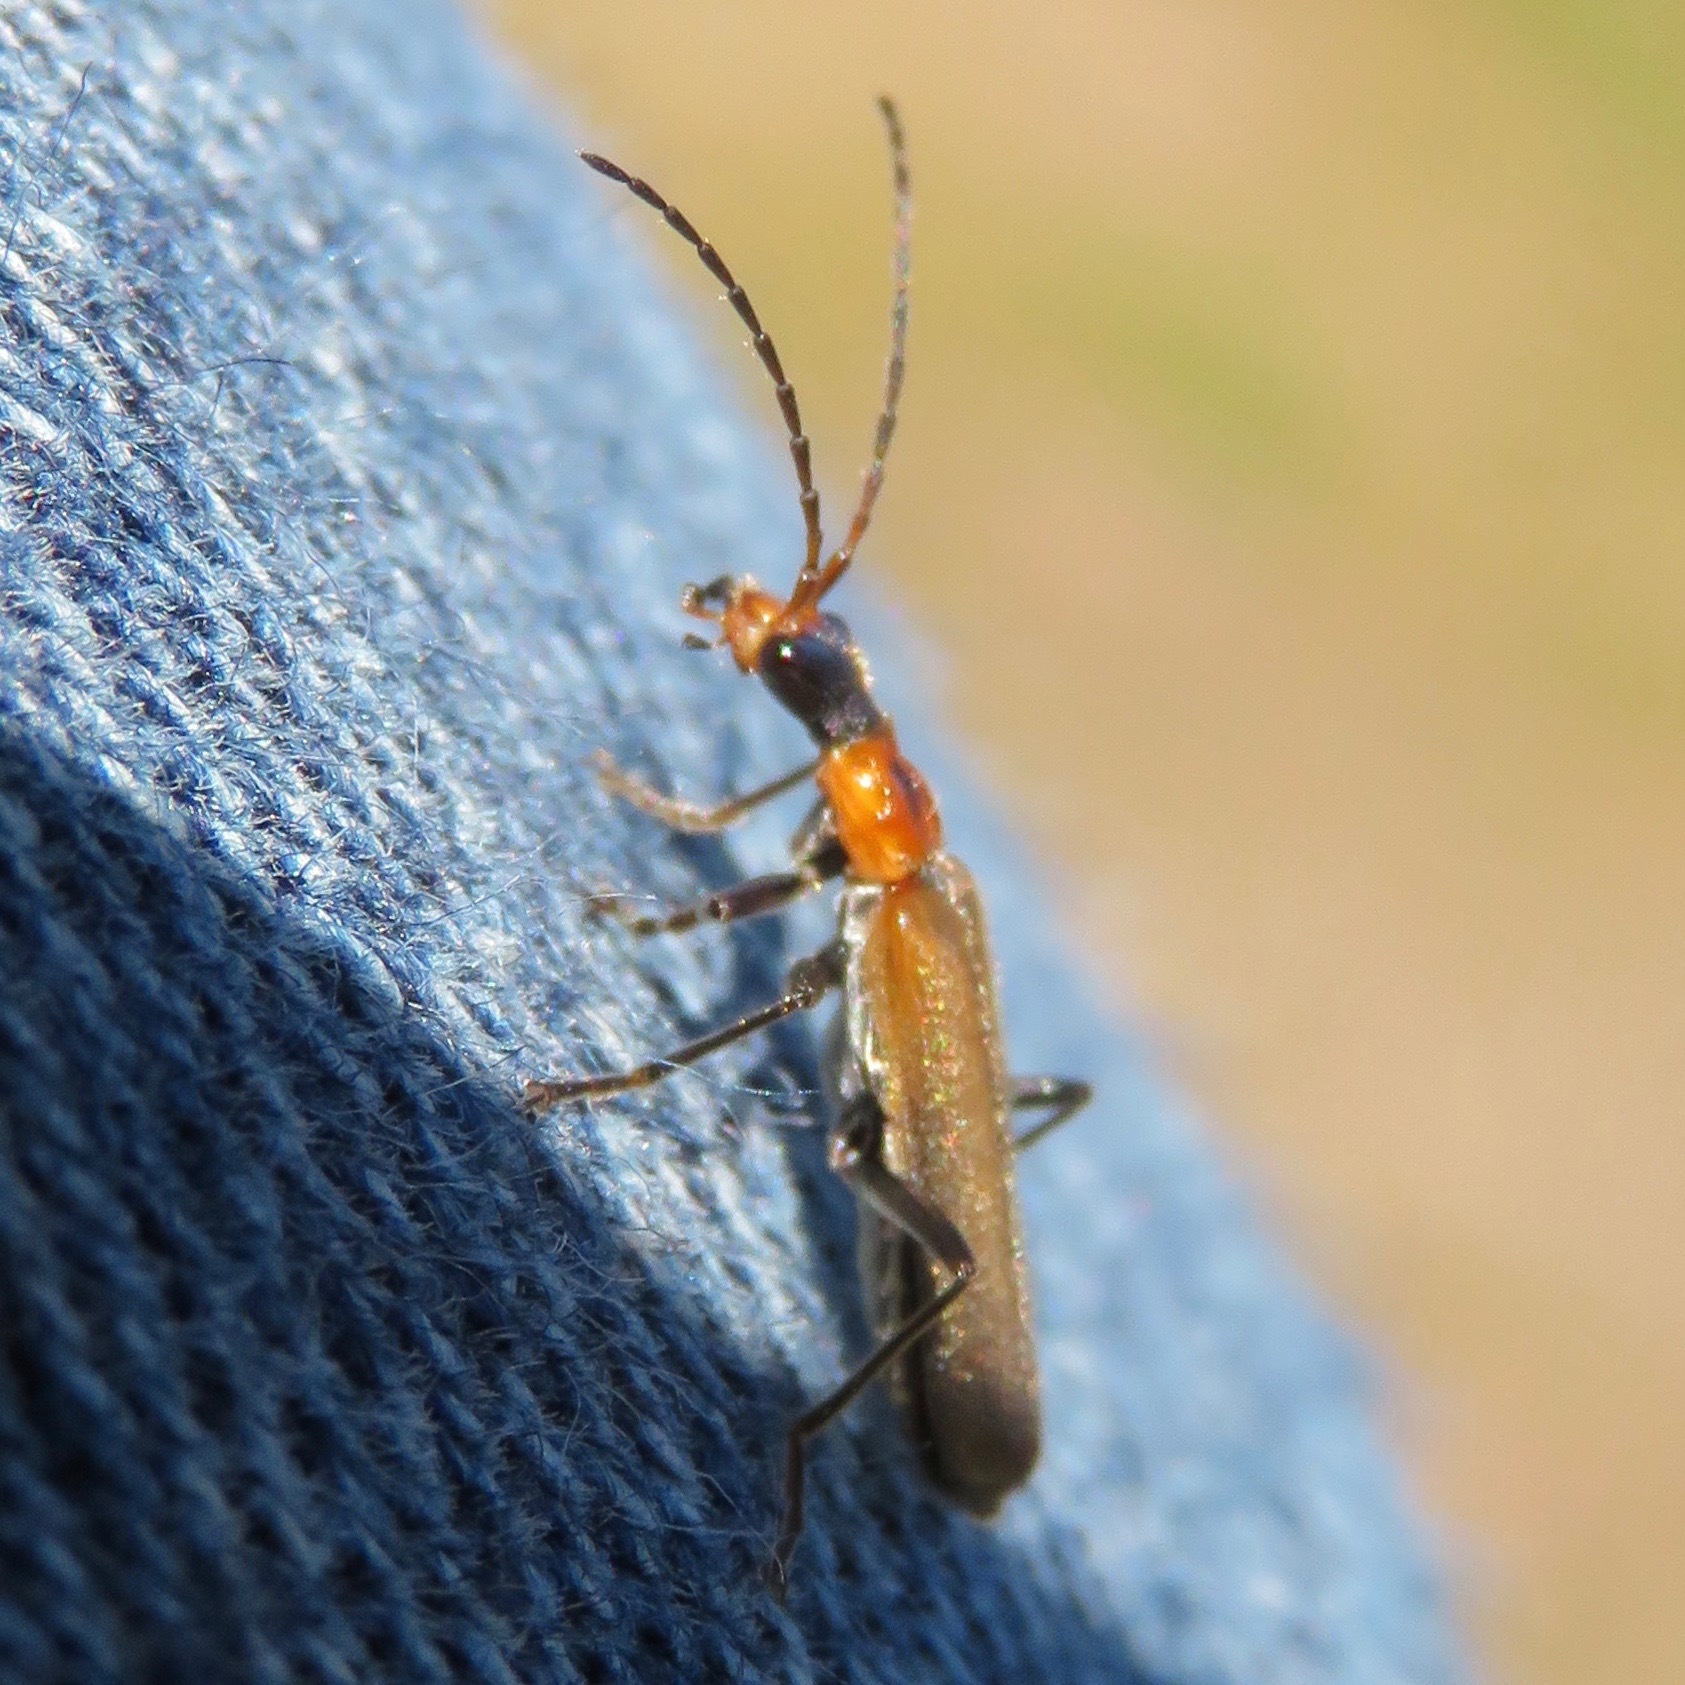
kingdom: Animalia
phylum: Arthropoda
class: Insecta
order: Coleoptera
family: Cantharidae
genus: Dichelotarsus
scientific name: Dichelotarsus cavicollis
